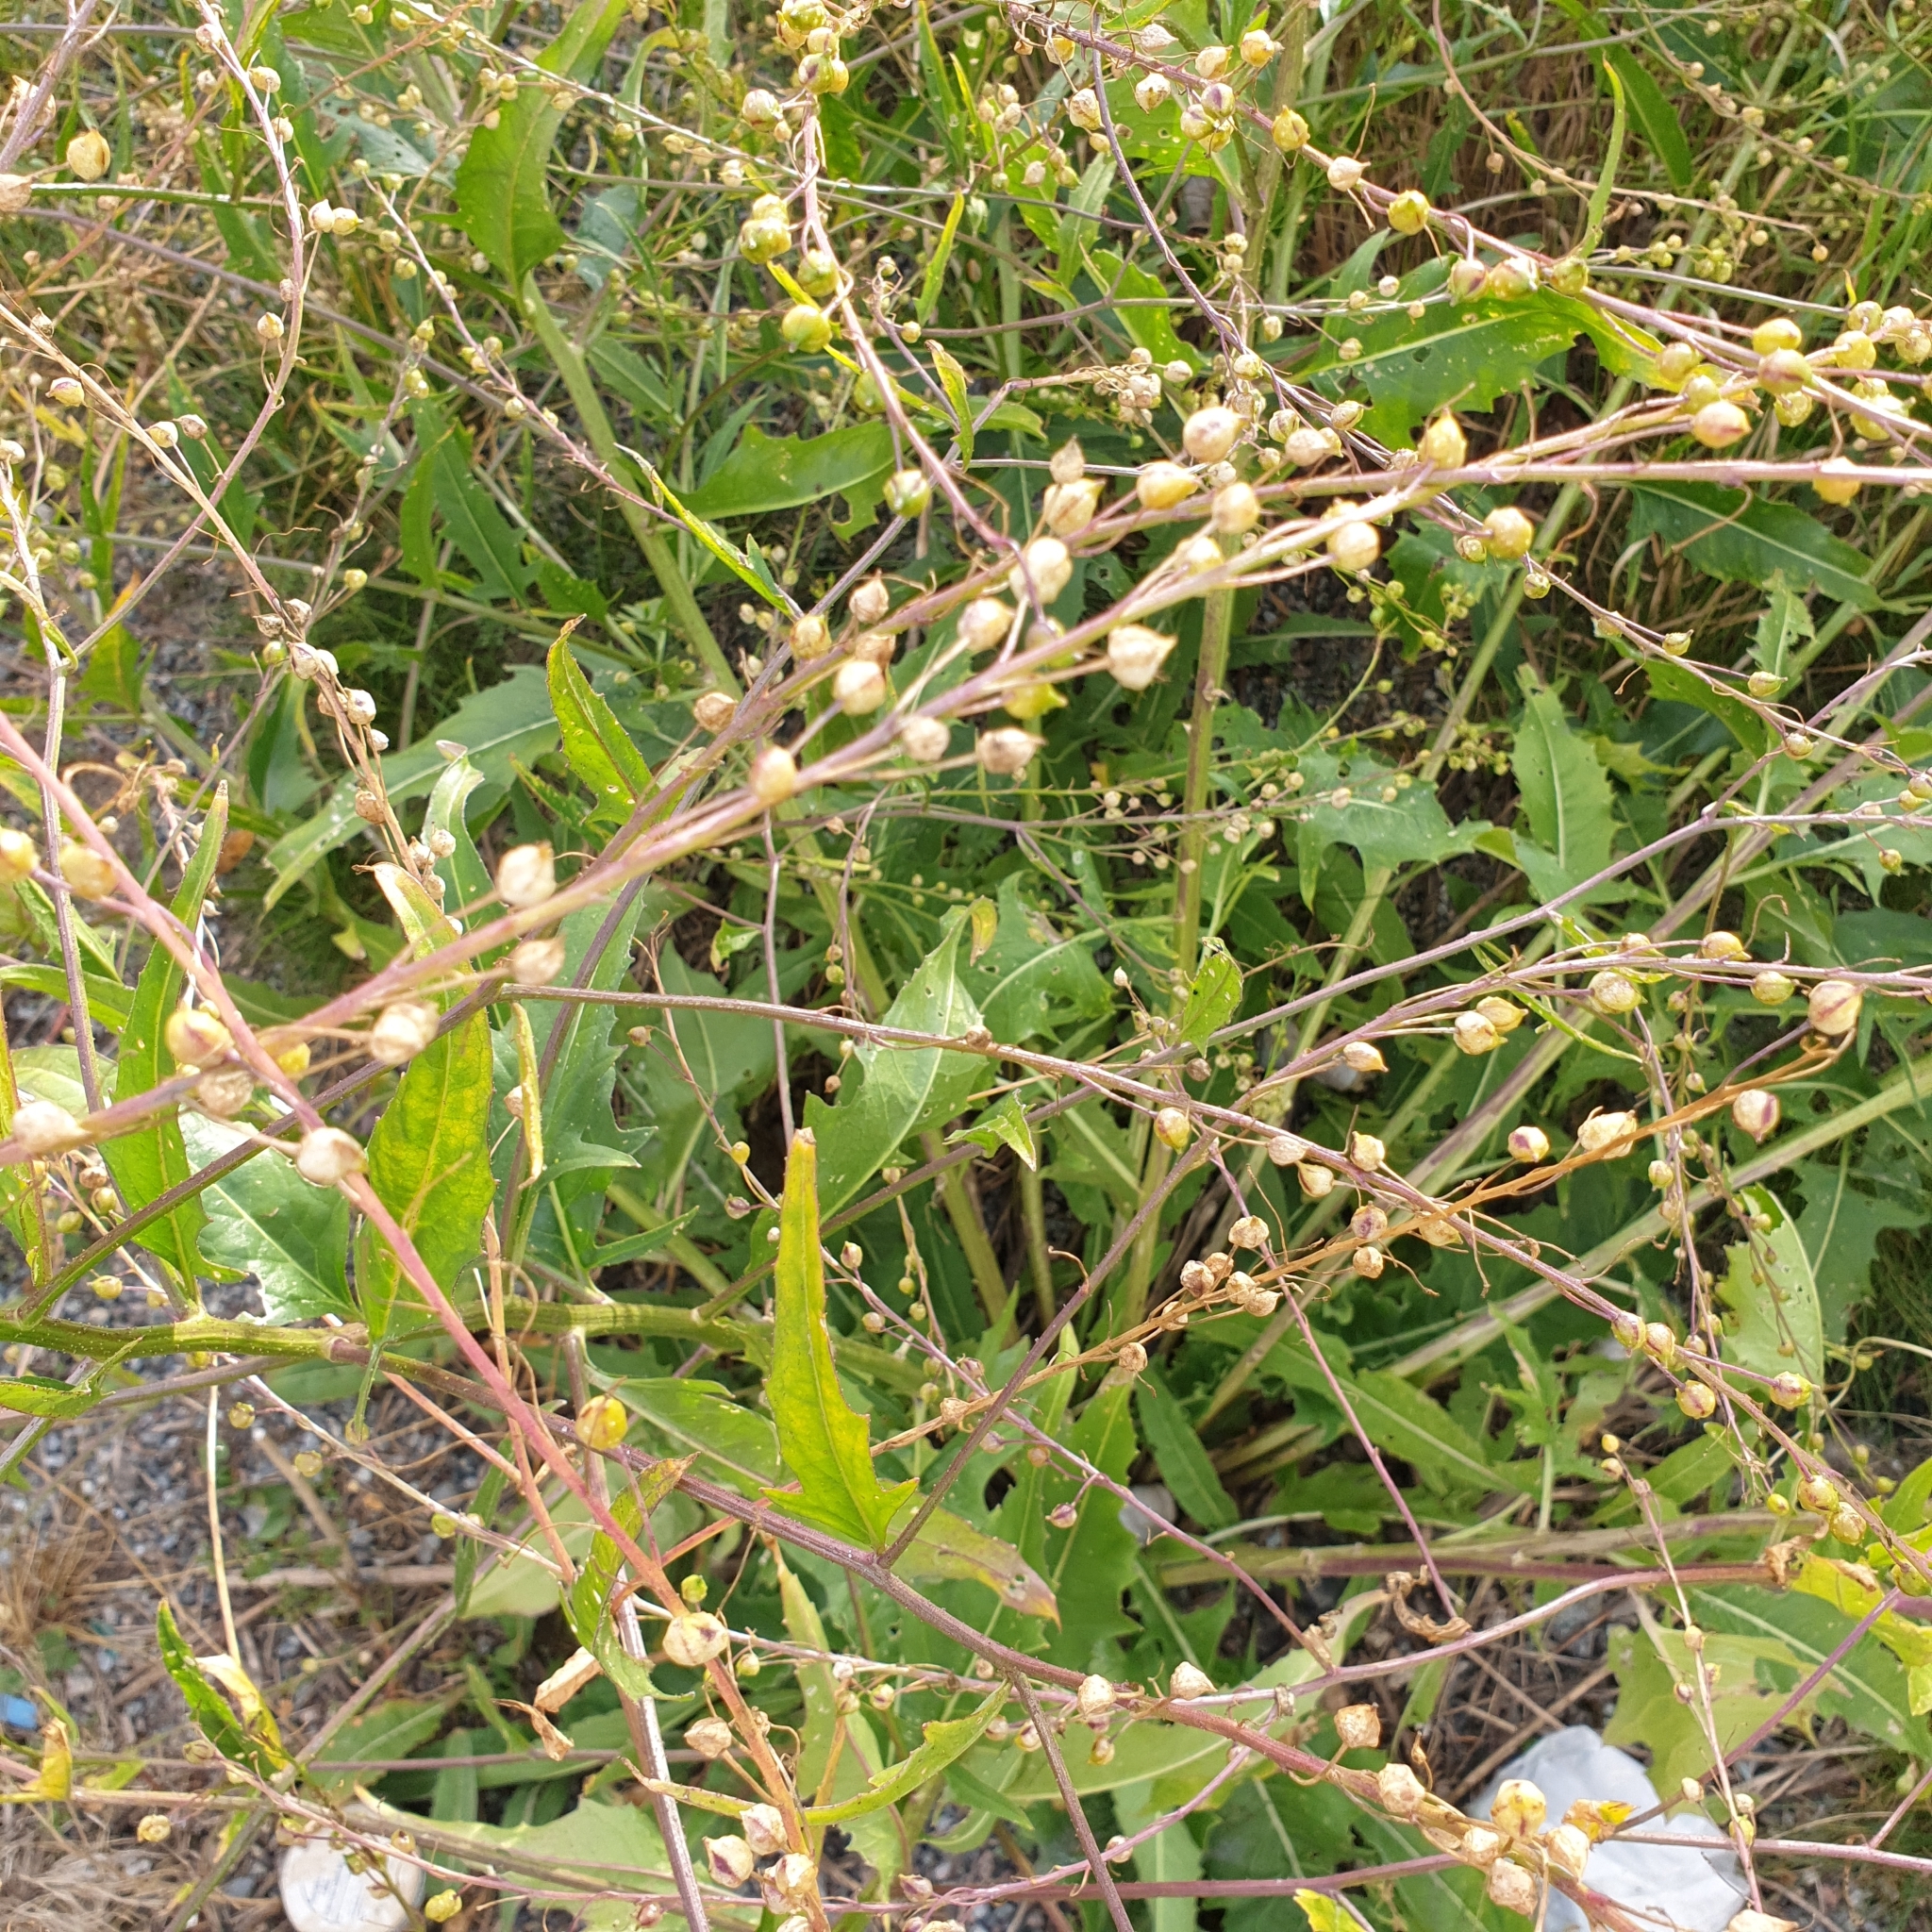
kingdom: Plantae
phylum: Tracheophyta
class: Magnoliopsida
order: Brassicales
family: Brassicaceae
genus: Bunias
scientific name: Bunias orientalis
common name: Warty-cabbage
